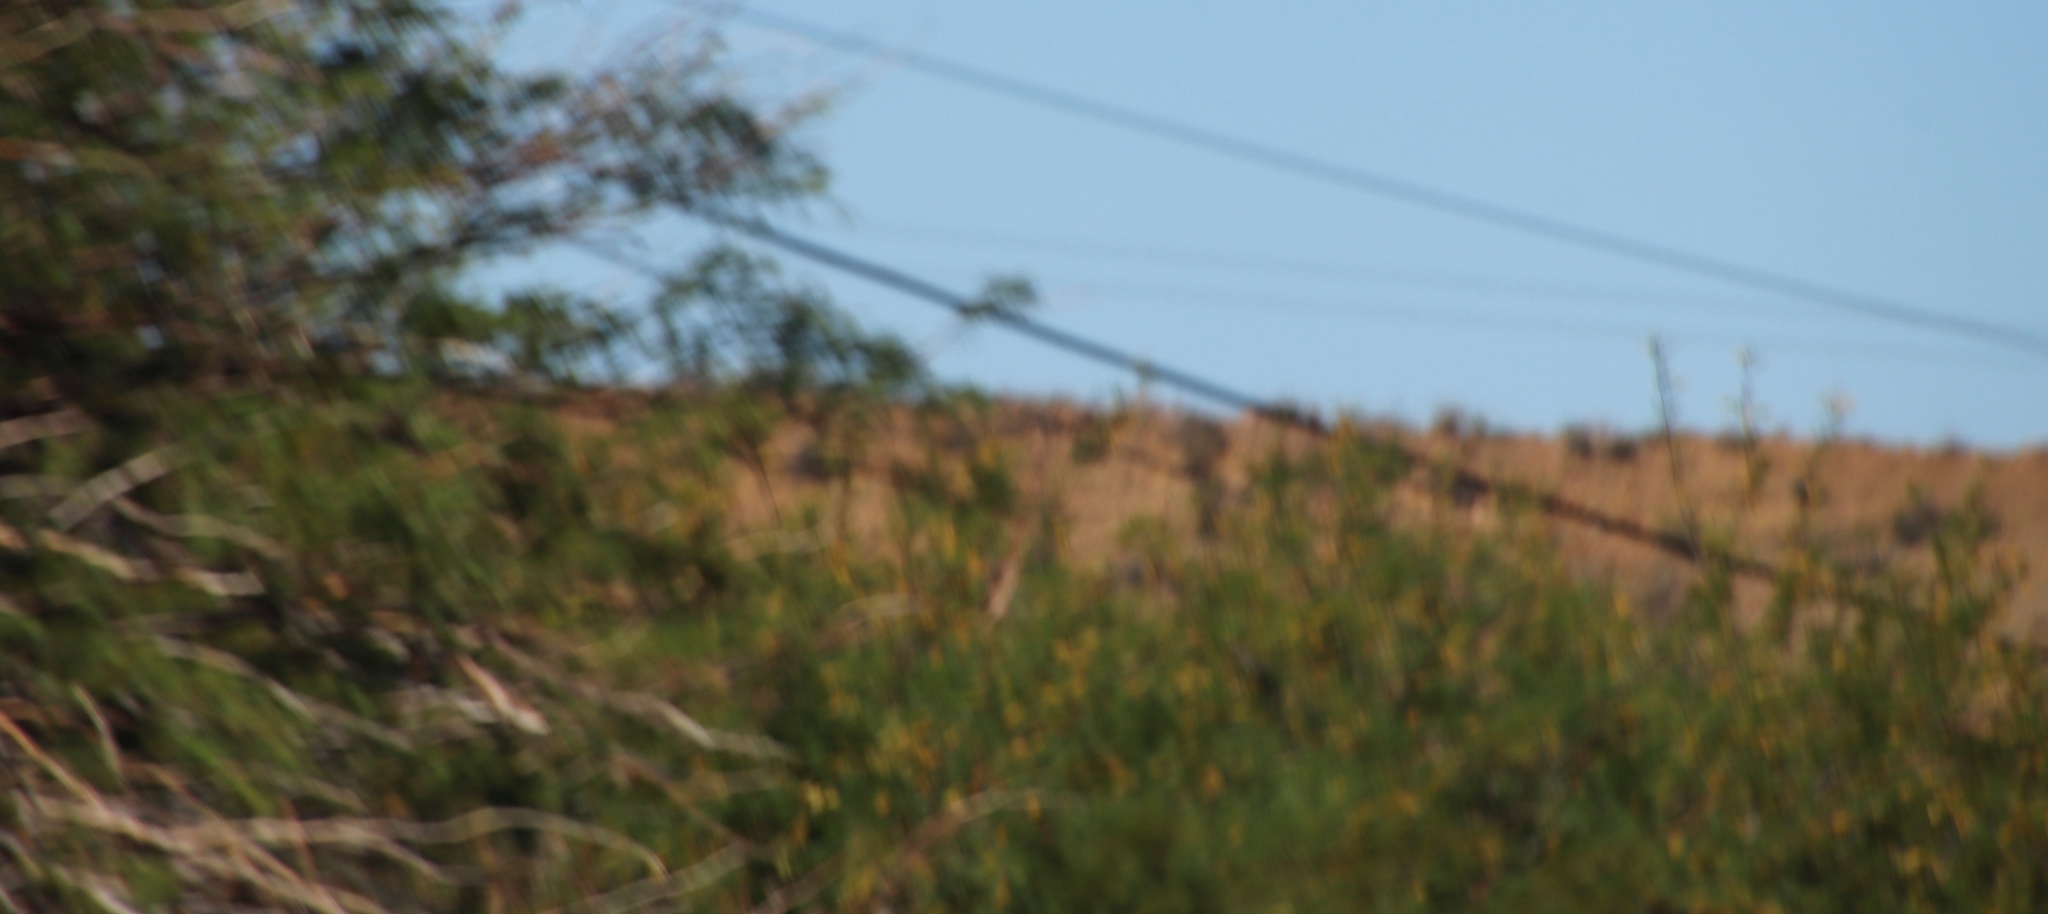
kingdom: Plantae
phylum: Tracheophyta
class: Magnoliopsida
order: Fabales
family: Fabaceae
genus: Vachellia
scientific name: Vachellia karroo
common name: Sweet thorn
